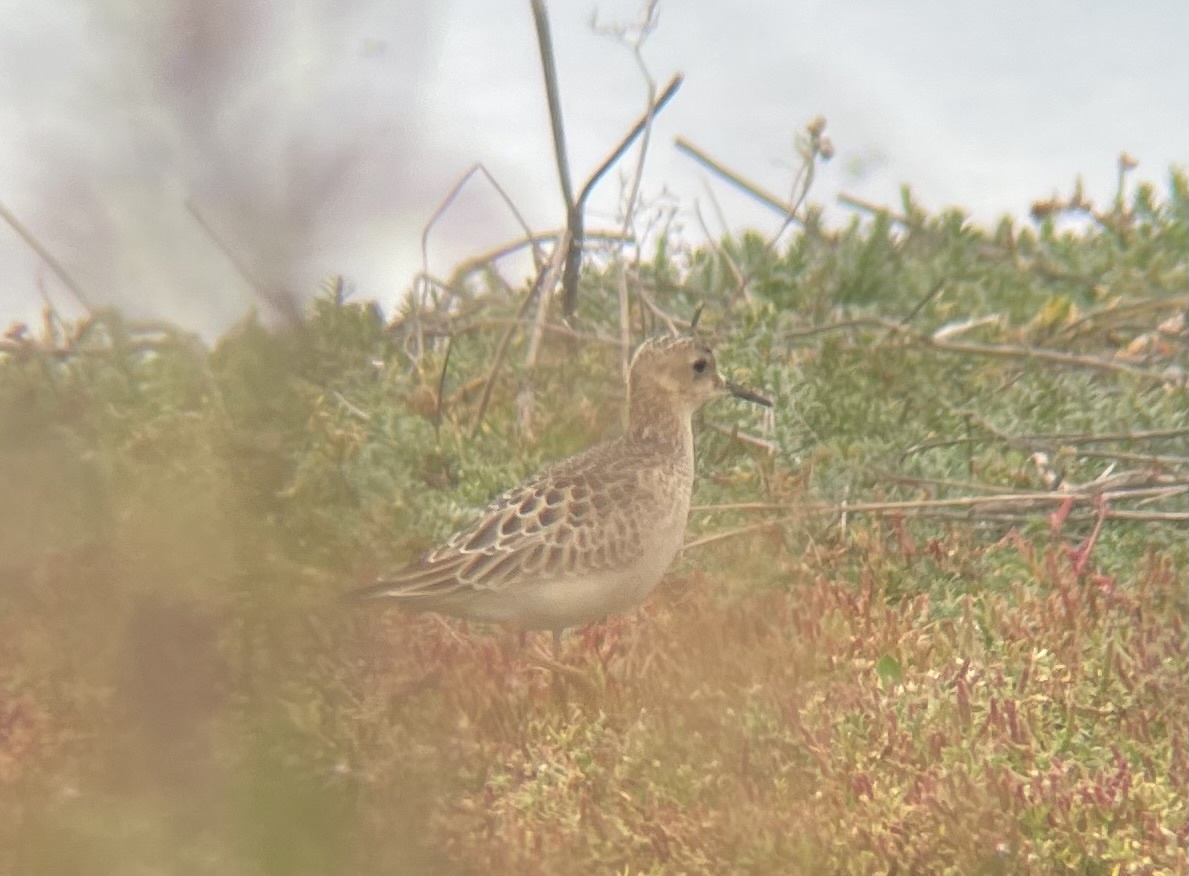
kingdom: Animalia
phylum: Chordata
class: Aves
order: Charadriiformes
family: Scolopacidae
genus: Calidris
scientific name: Calidris subruficollis
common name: Buff-breasted sandpiper
